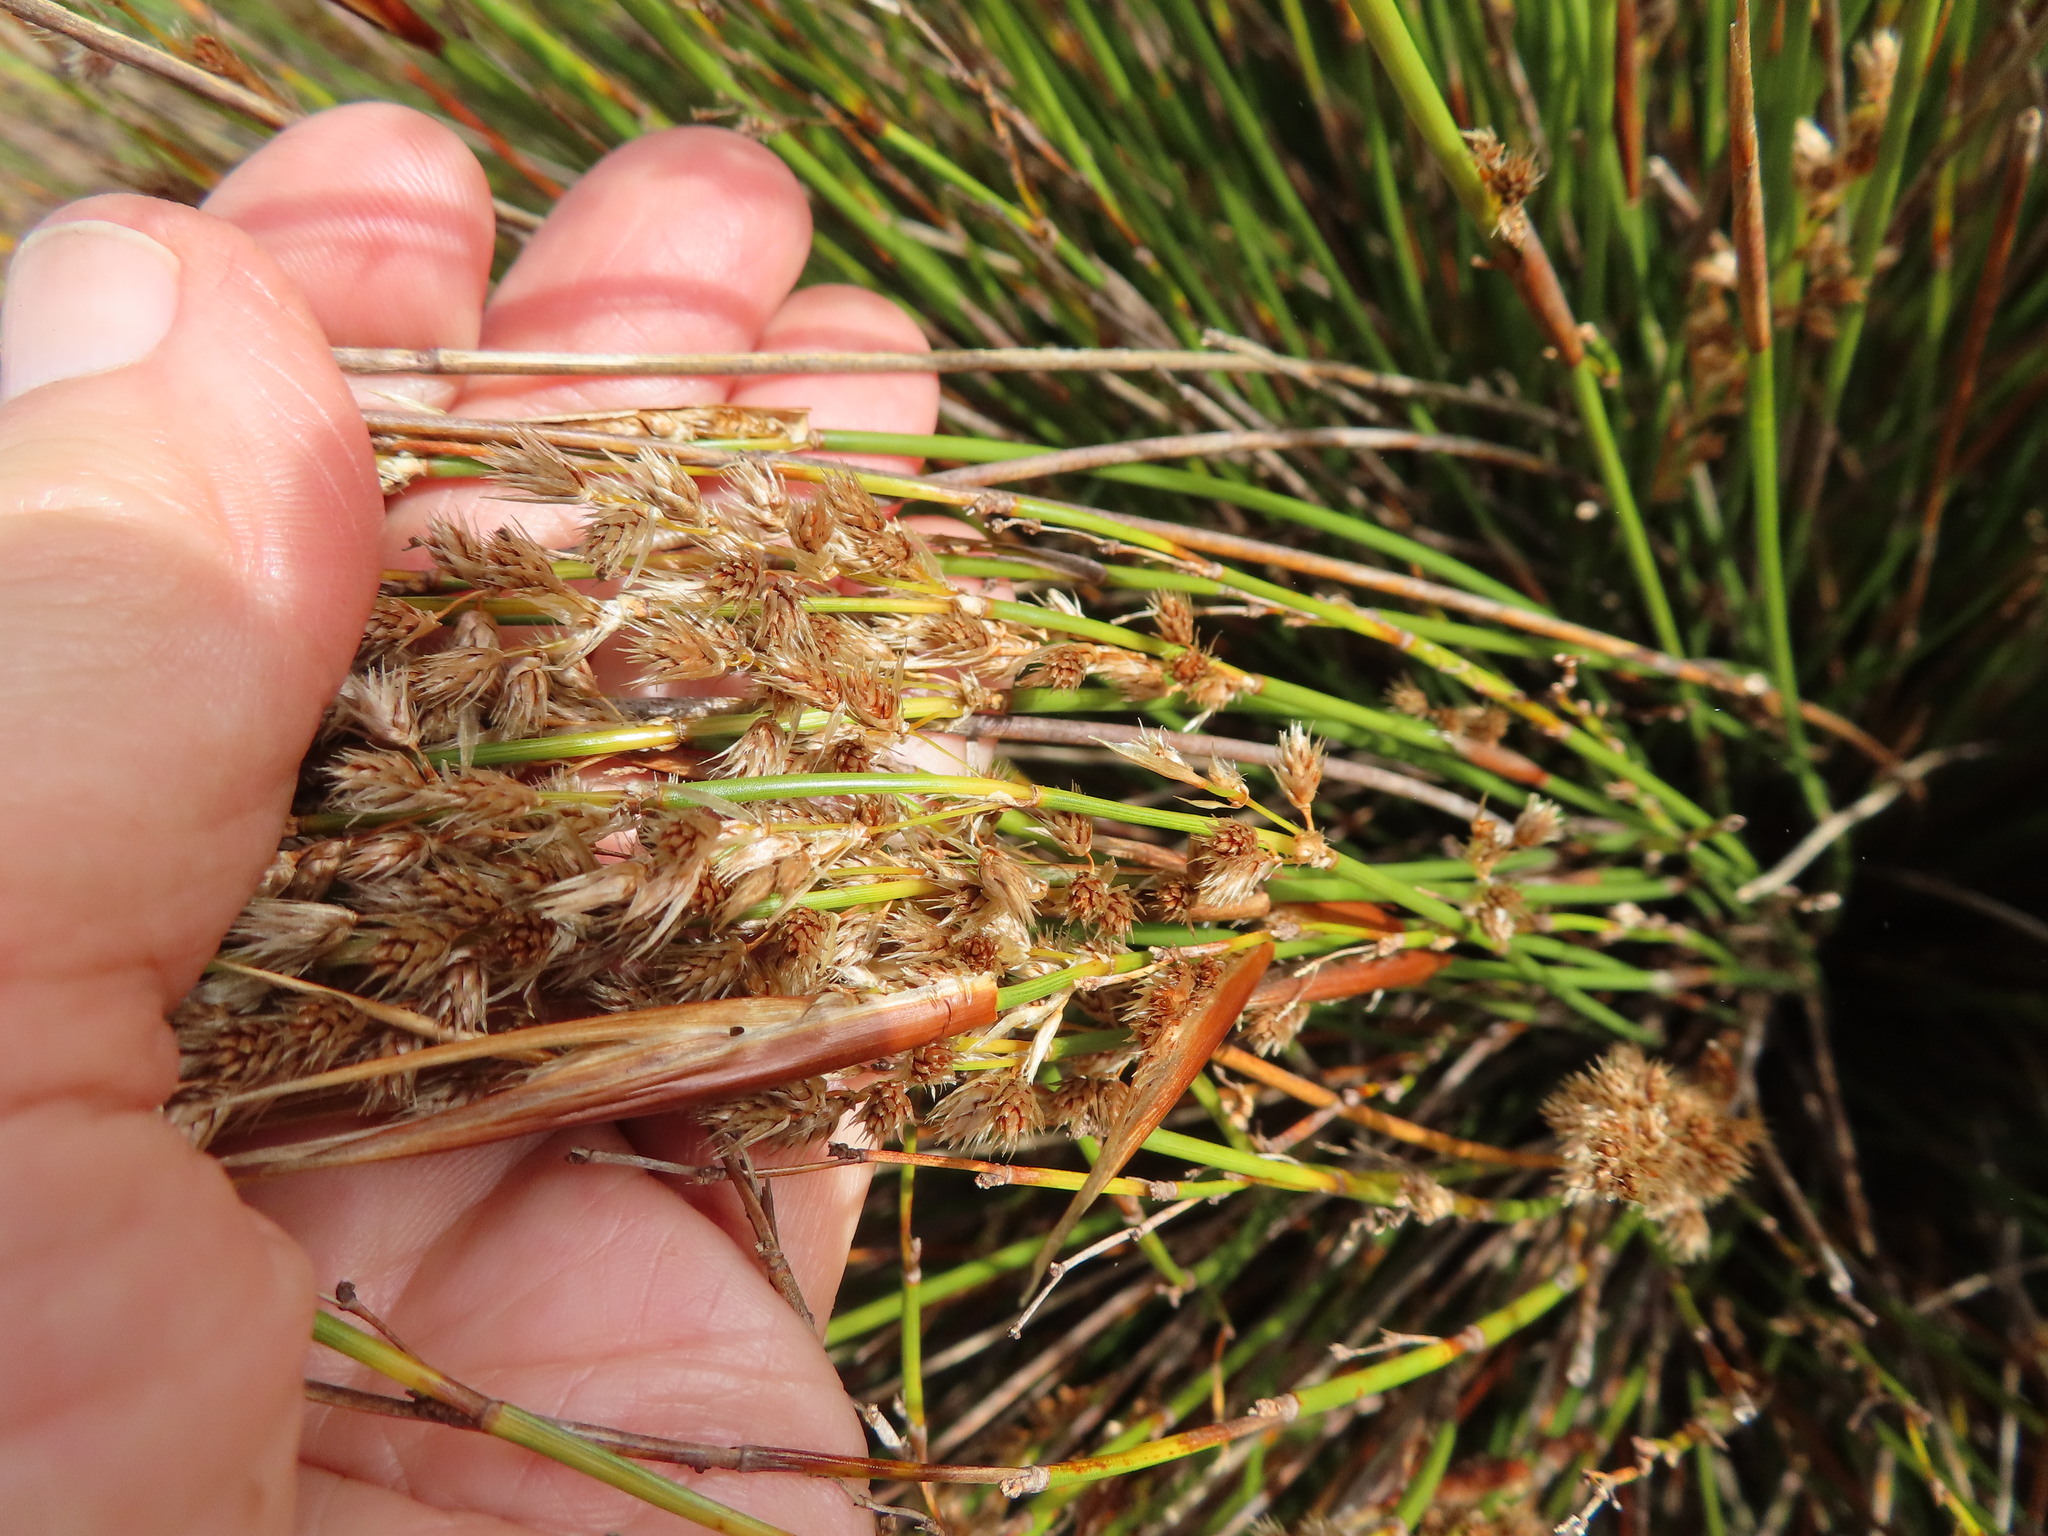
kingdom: Plantae
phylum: Tracheophyta
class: Liliopsida
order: Poales
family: Restionaceae
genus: Hypodiscus
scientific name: Hypodiscus argenteus
